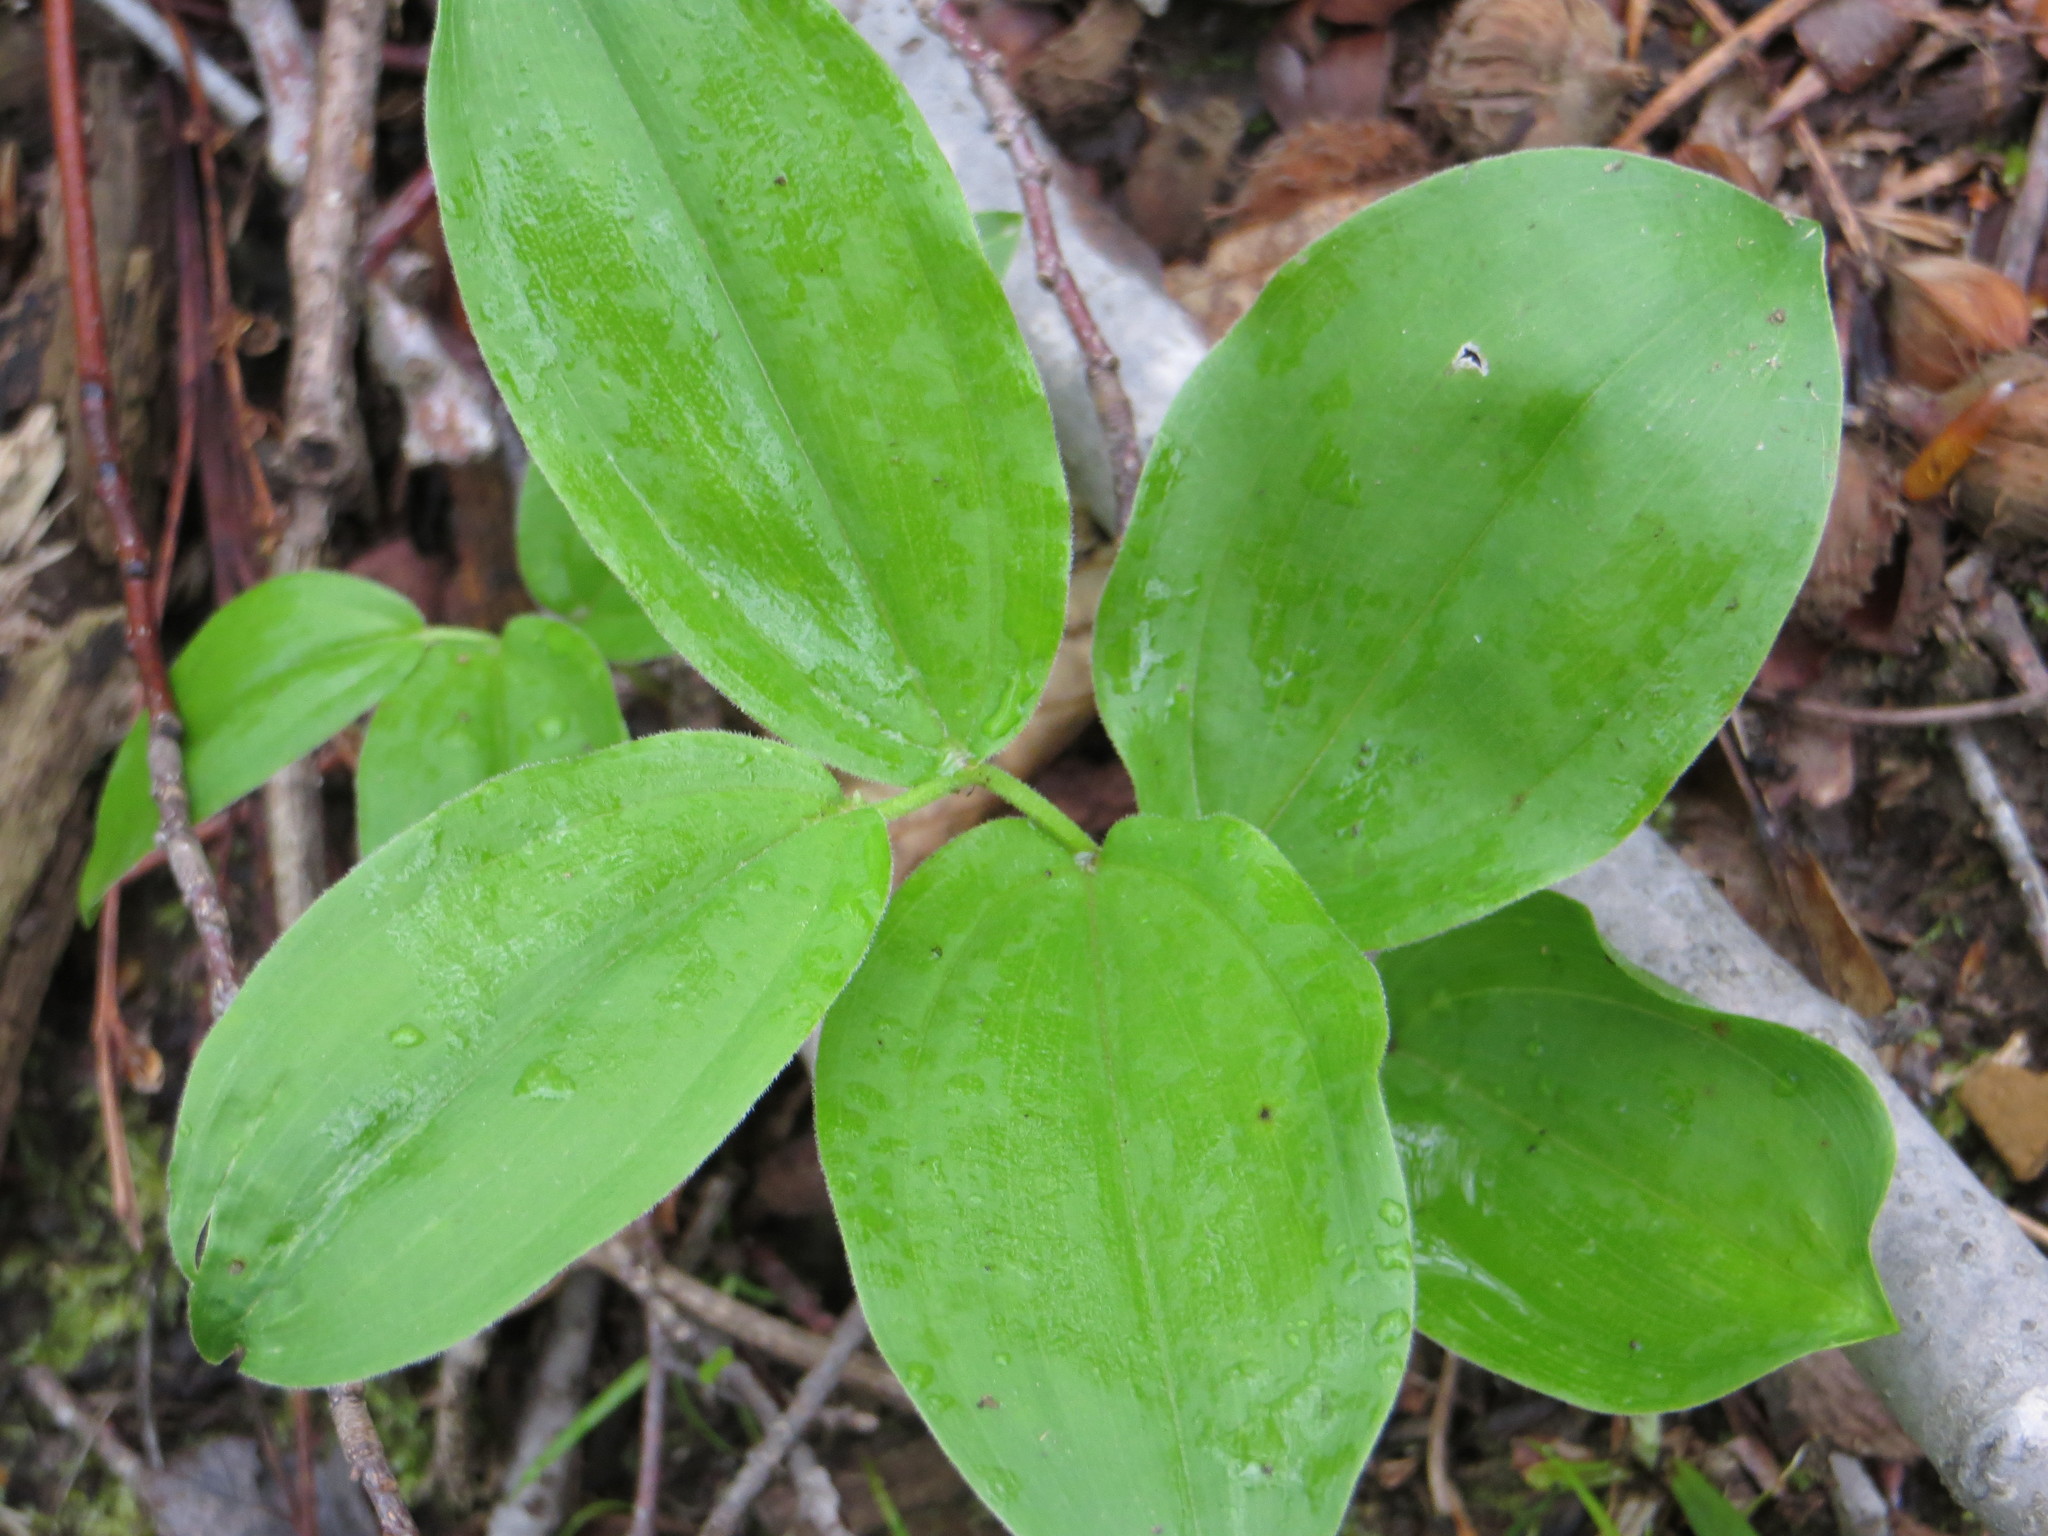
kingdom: Plantae
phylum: Tracheophyta
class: Liliopsida
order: Asparagales
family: Asparagaceae
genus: Maianthemum
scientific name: Maianthemum racemosum
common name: False spikenard
